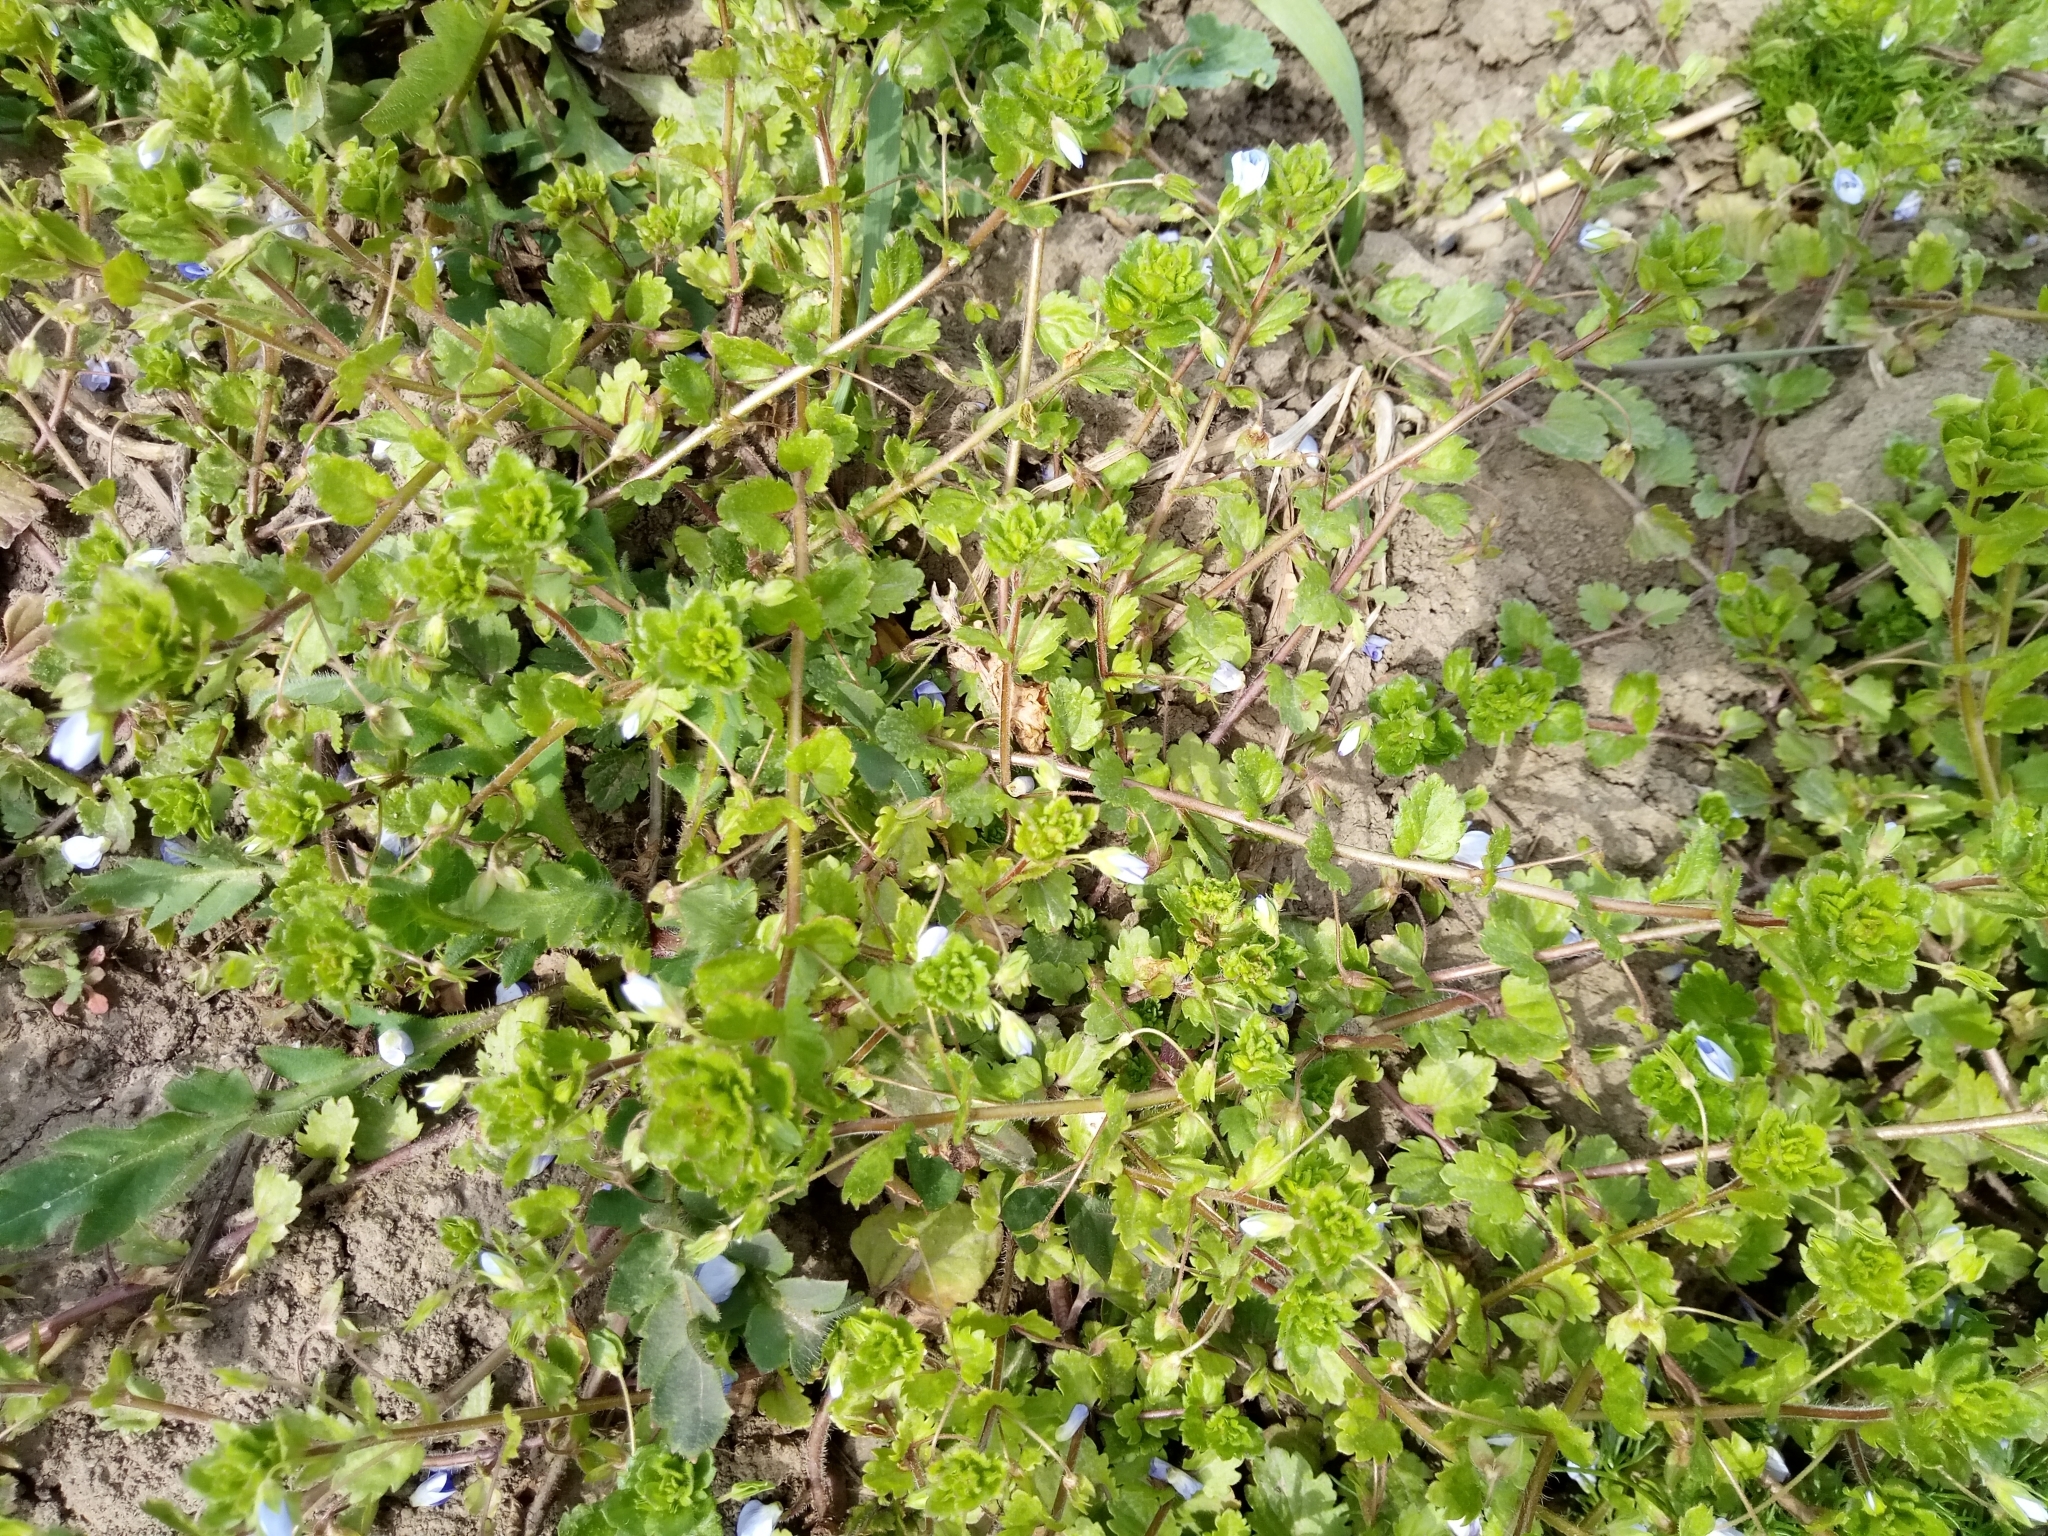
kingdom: Plantae
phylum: Tracheophyta
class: Magnoliopsida
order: Lamiales
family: Plantaginaceae
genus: Veronica
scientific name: Veronica persica
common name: Common field-speedwell
